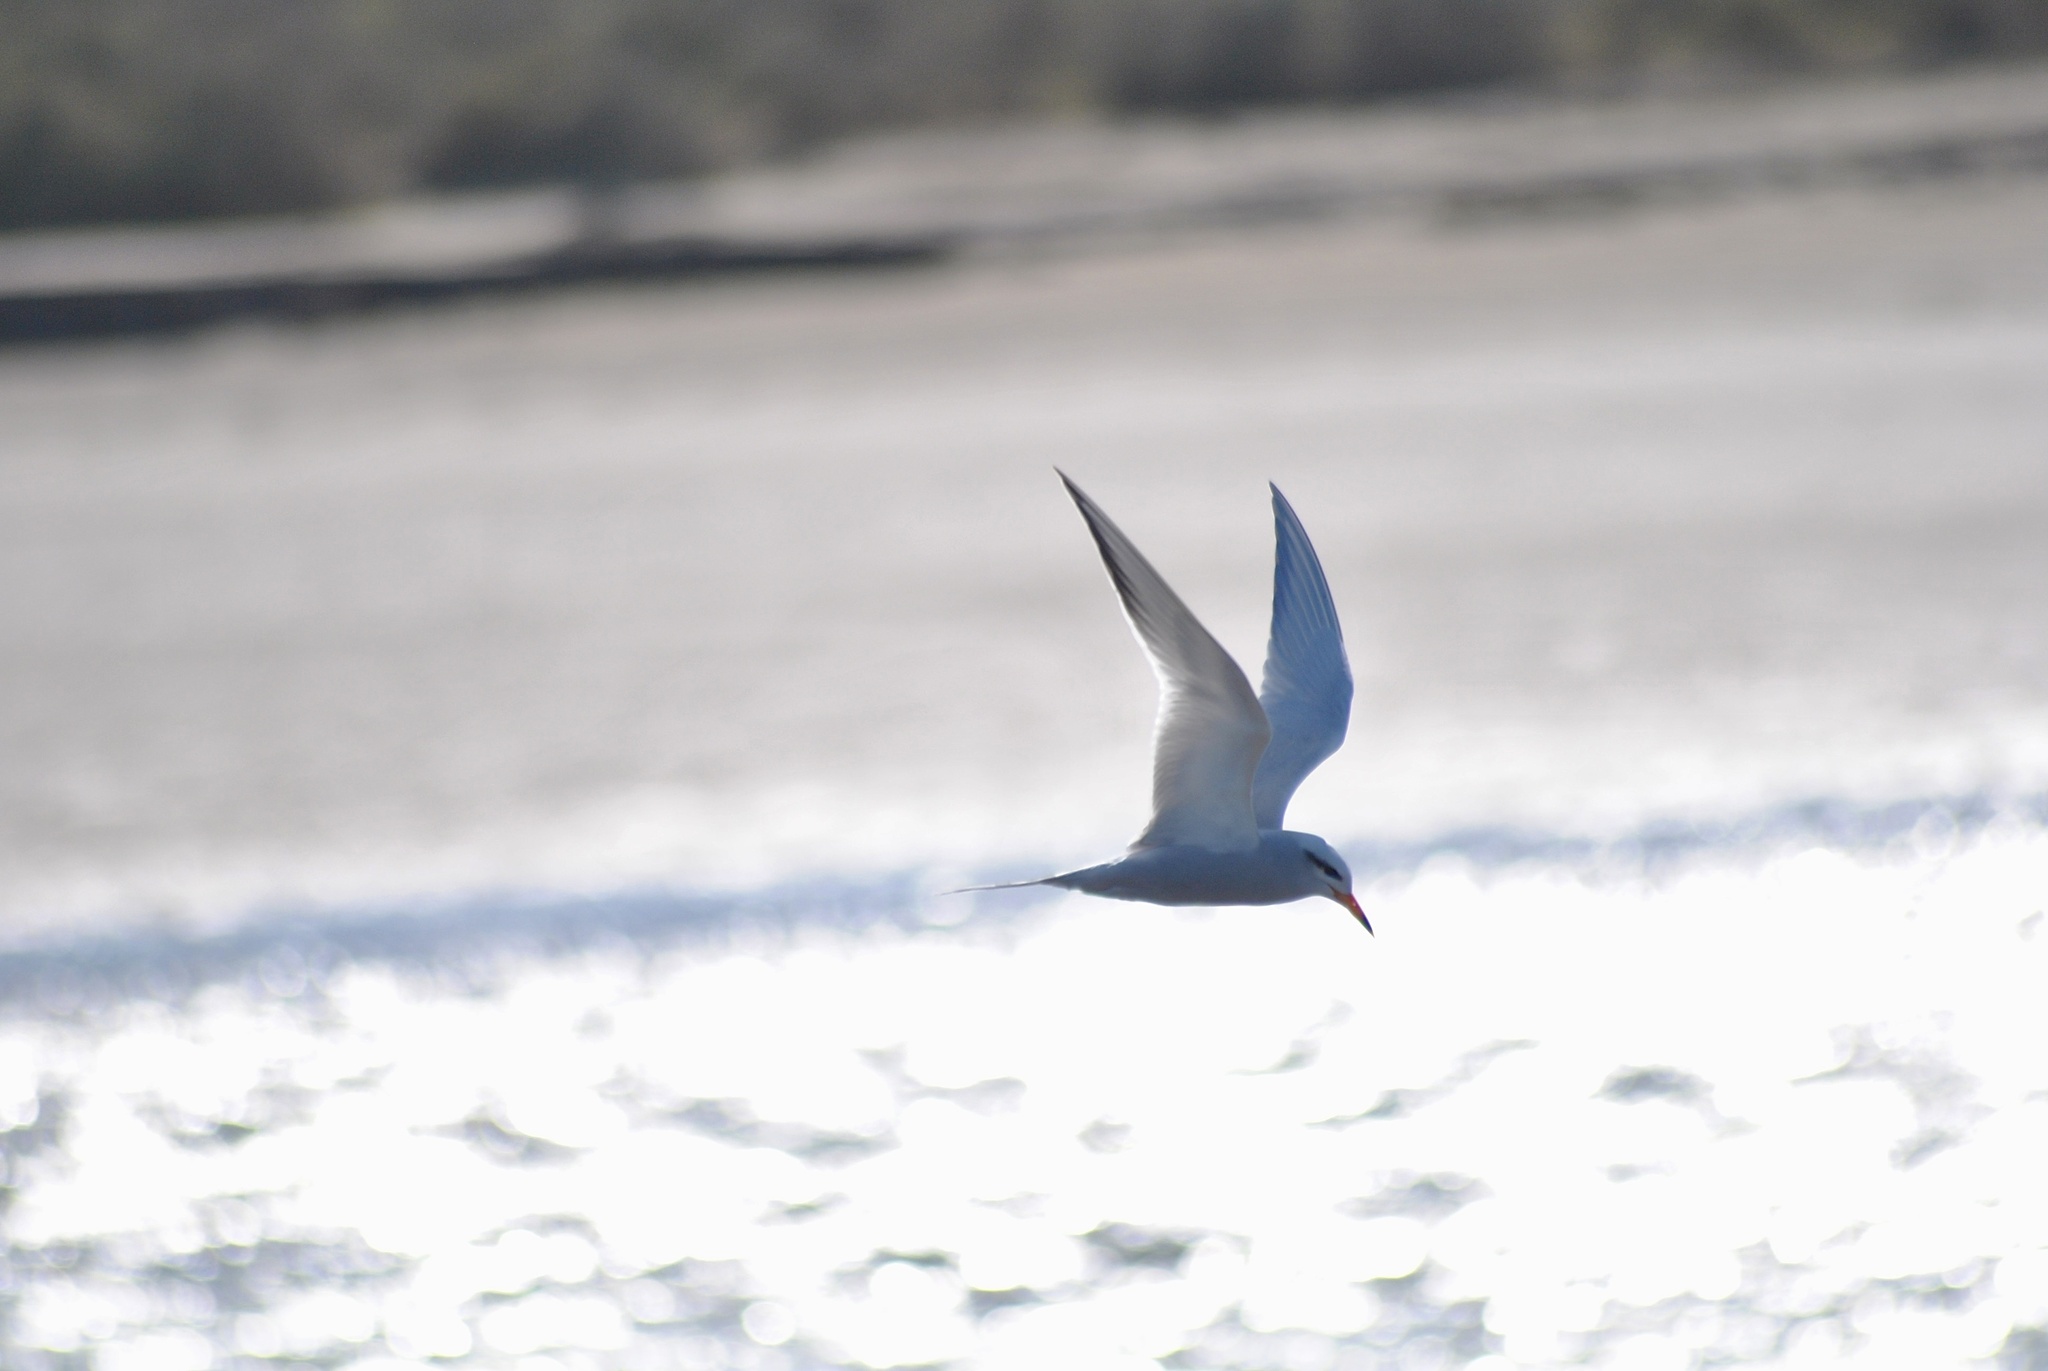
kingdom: Animalia
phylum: Chordata
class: Aves
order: Charadriiformes
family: Laridae
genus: Sterna
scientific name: Sterna trudeaui
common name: Snowy-crowned tern
